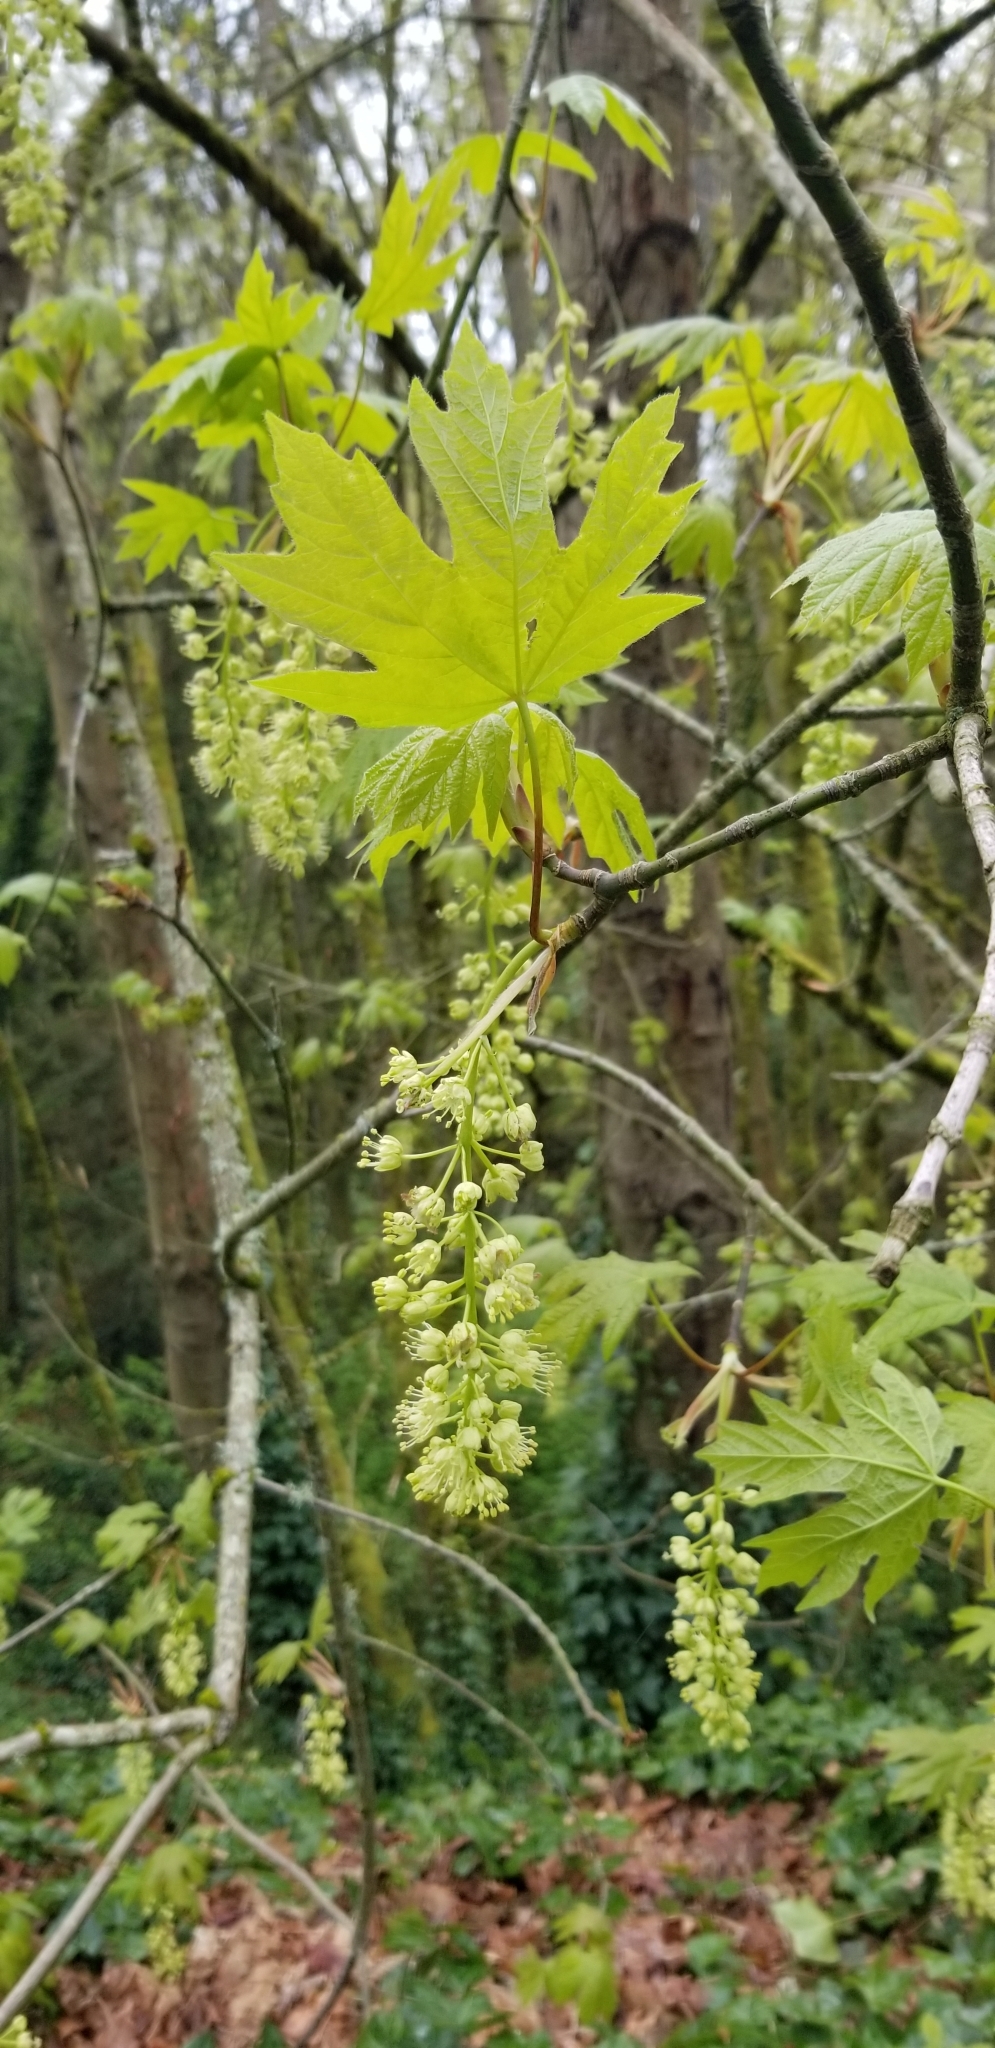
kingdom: Plantae
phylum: Tracheophyta
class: Magnoliopsida
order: Sapindales
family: Sapindaceae
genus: Acer
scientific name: Acer macrophyllum
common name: Oregon maple
